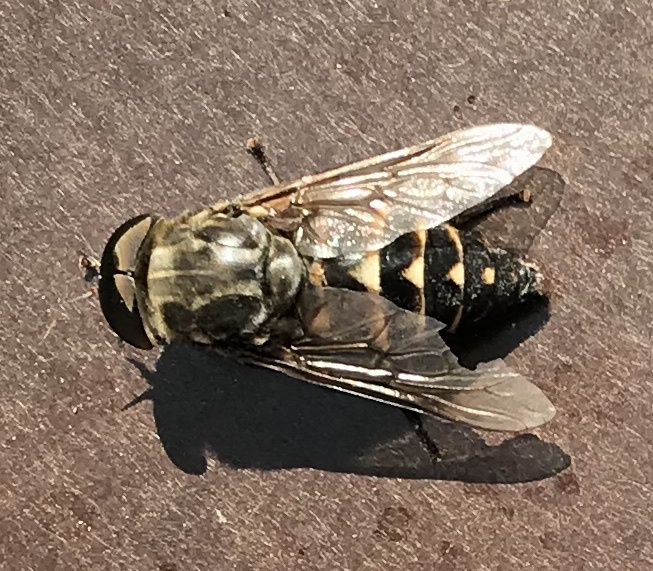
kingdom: Animalia
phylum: Arthropoda
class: Insecta
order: Diptera
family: Tabanidae
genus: Tabanus
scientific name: Tabanus sudeticus
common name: Dark giant horsefly
